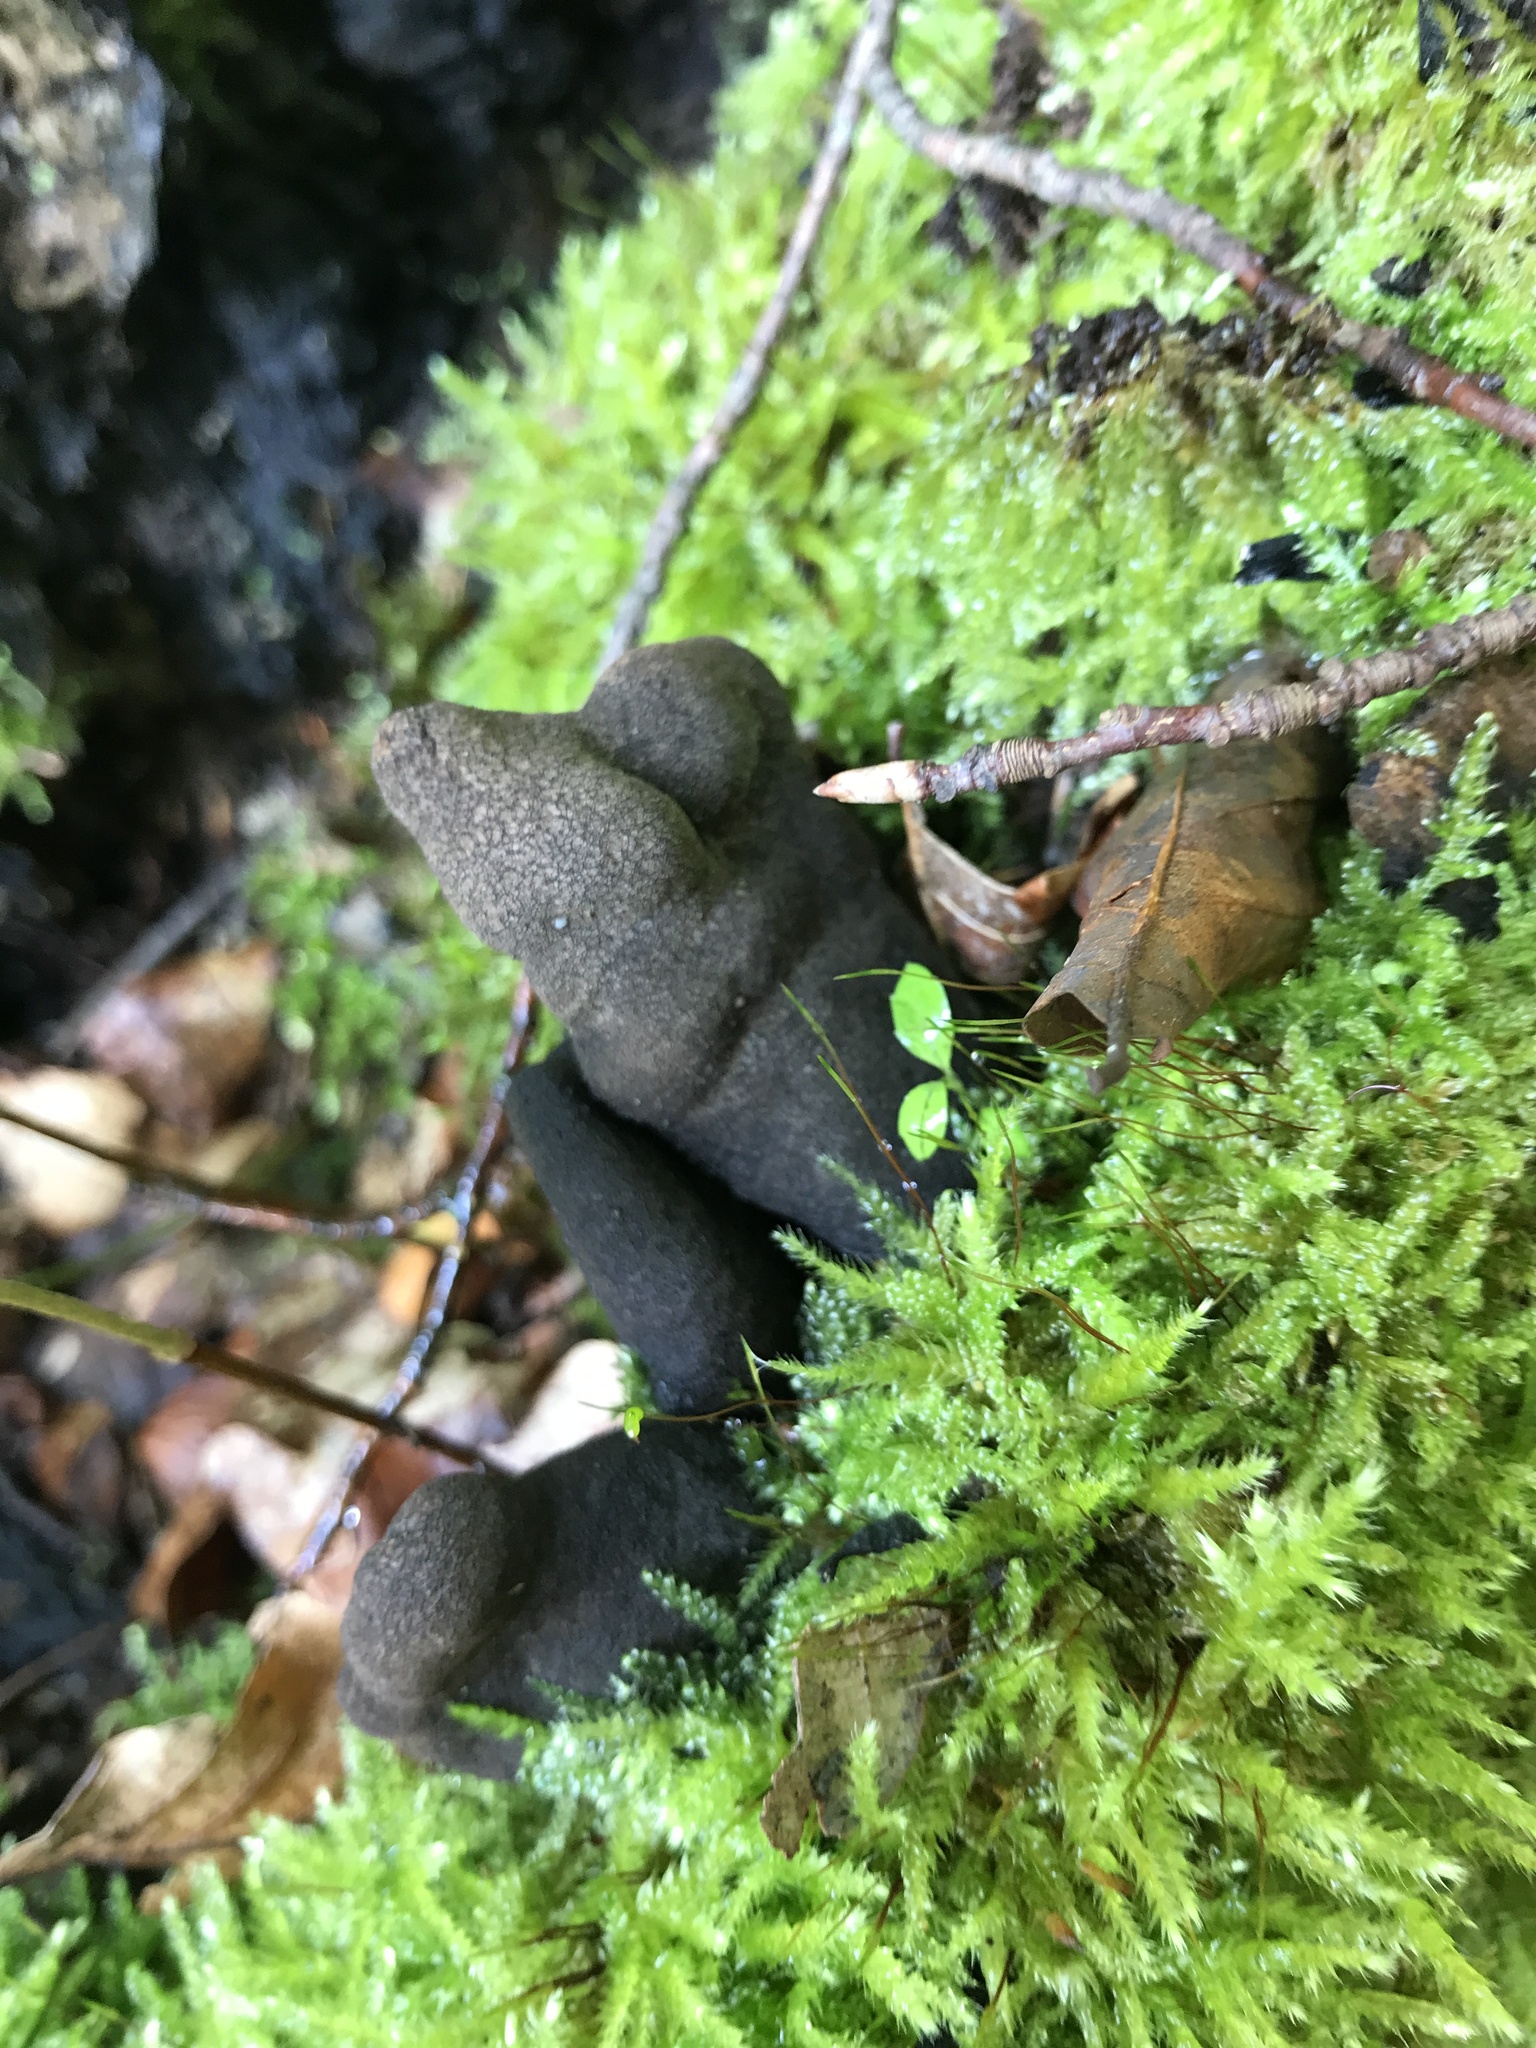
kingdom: Fungi
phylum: Ascomycota
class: Sordariomycetes
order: Xylariales
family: Xylariaceae
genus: Xylaria
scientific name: Xylaria polymorpha
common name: Dead man's fingers
